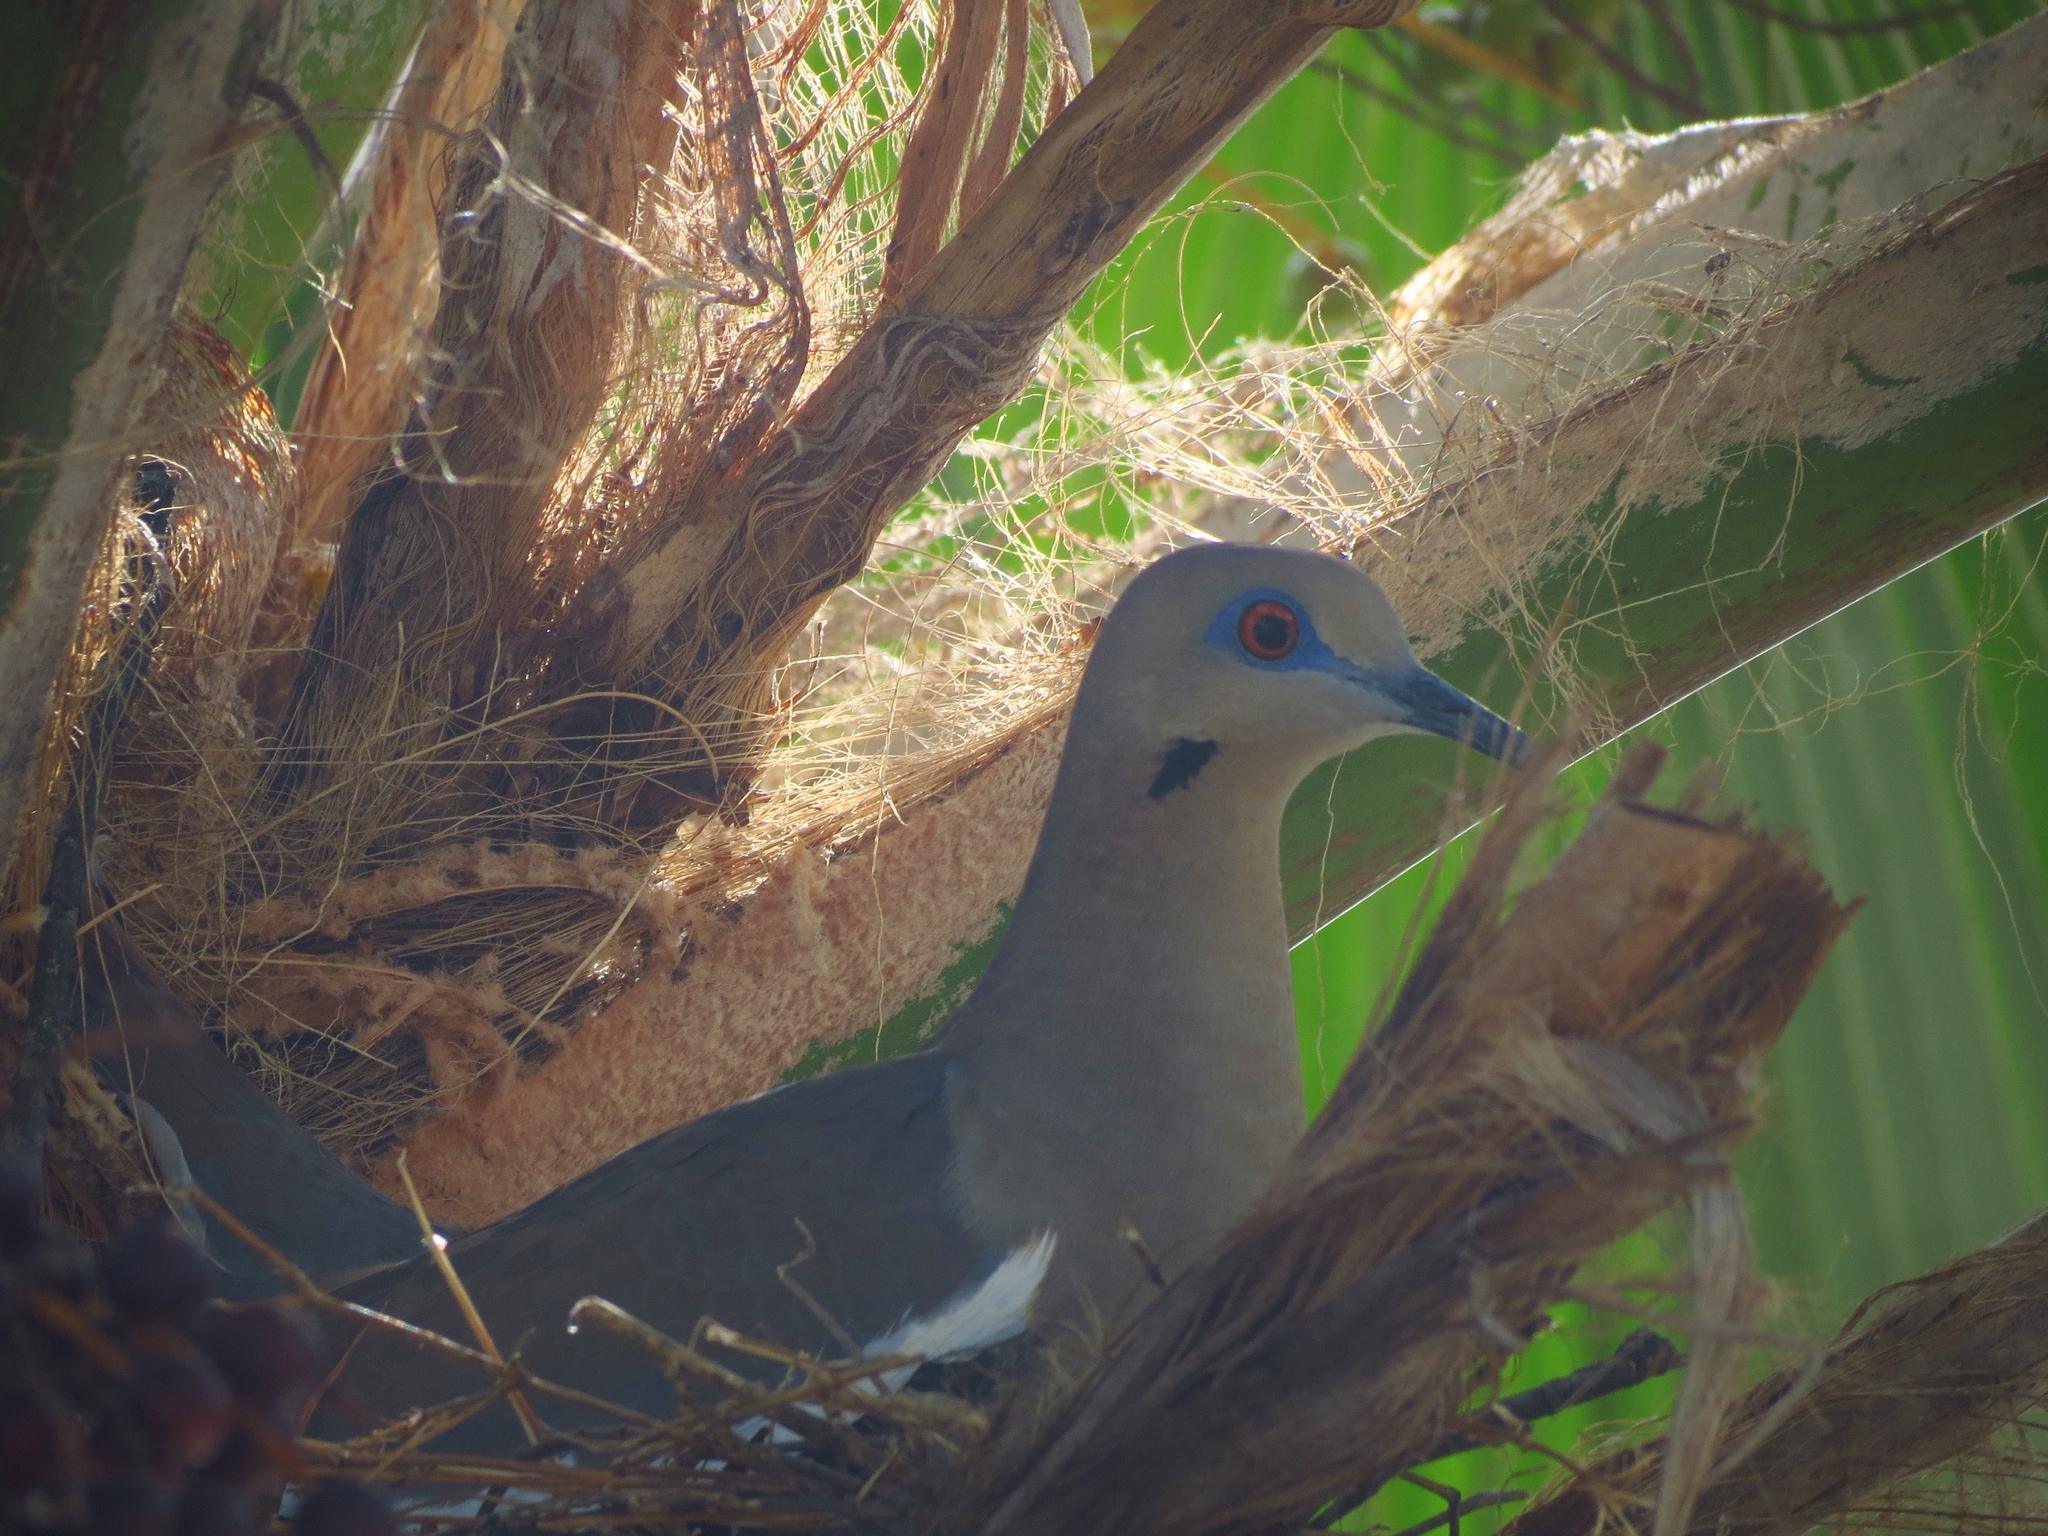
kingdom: Animalia
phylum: Chordata
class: Aves
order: Columbiformes
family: Columbidae
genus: Zenaida
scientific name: Zenaida asiatica
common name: White-winged dove
